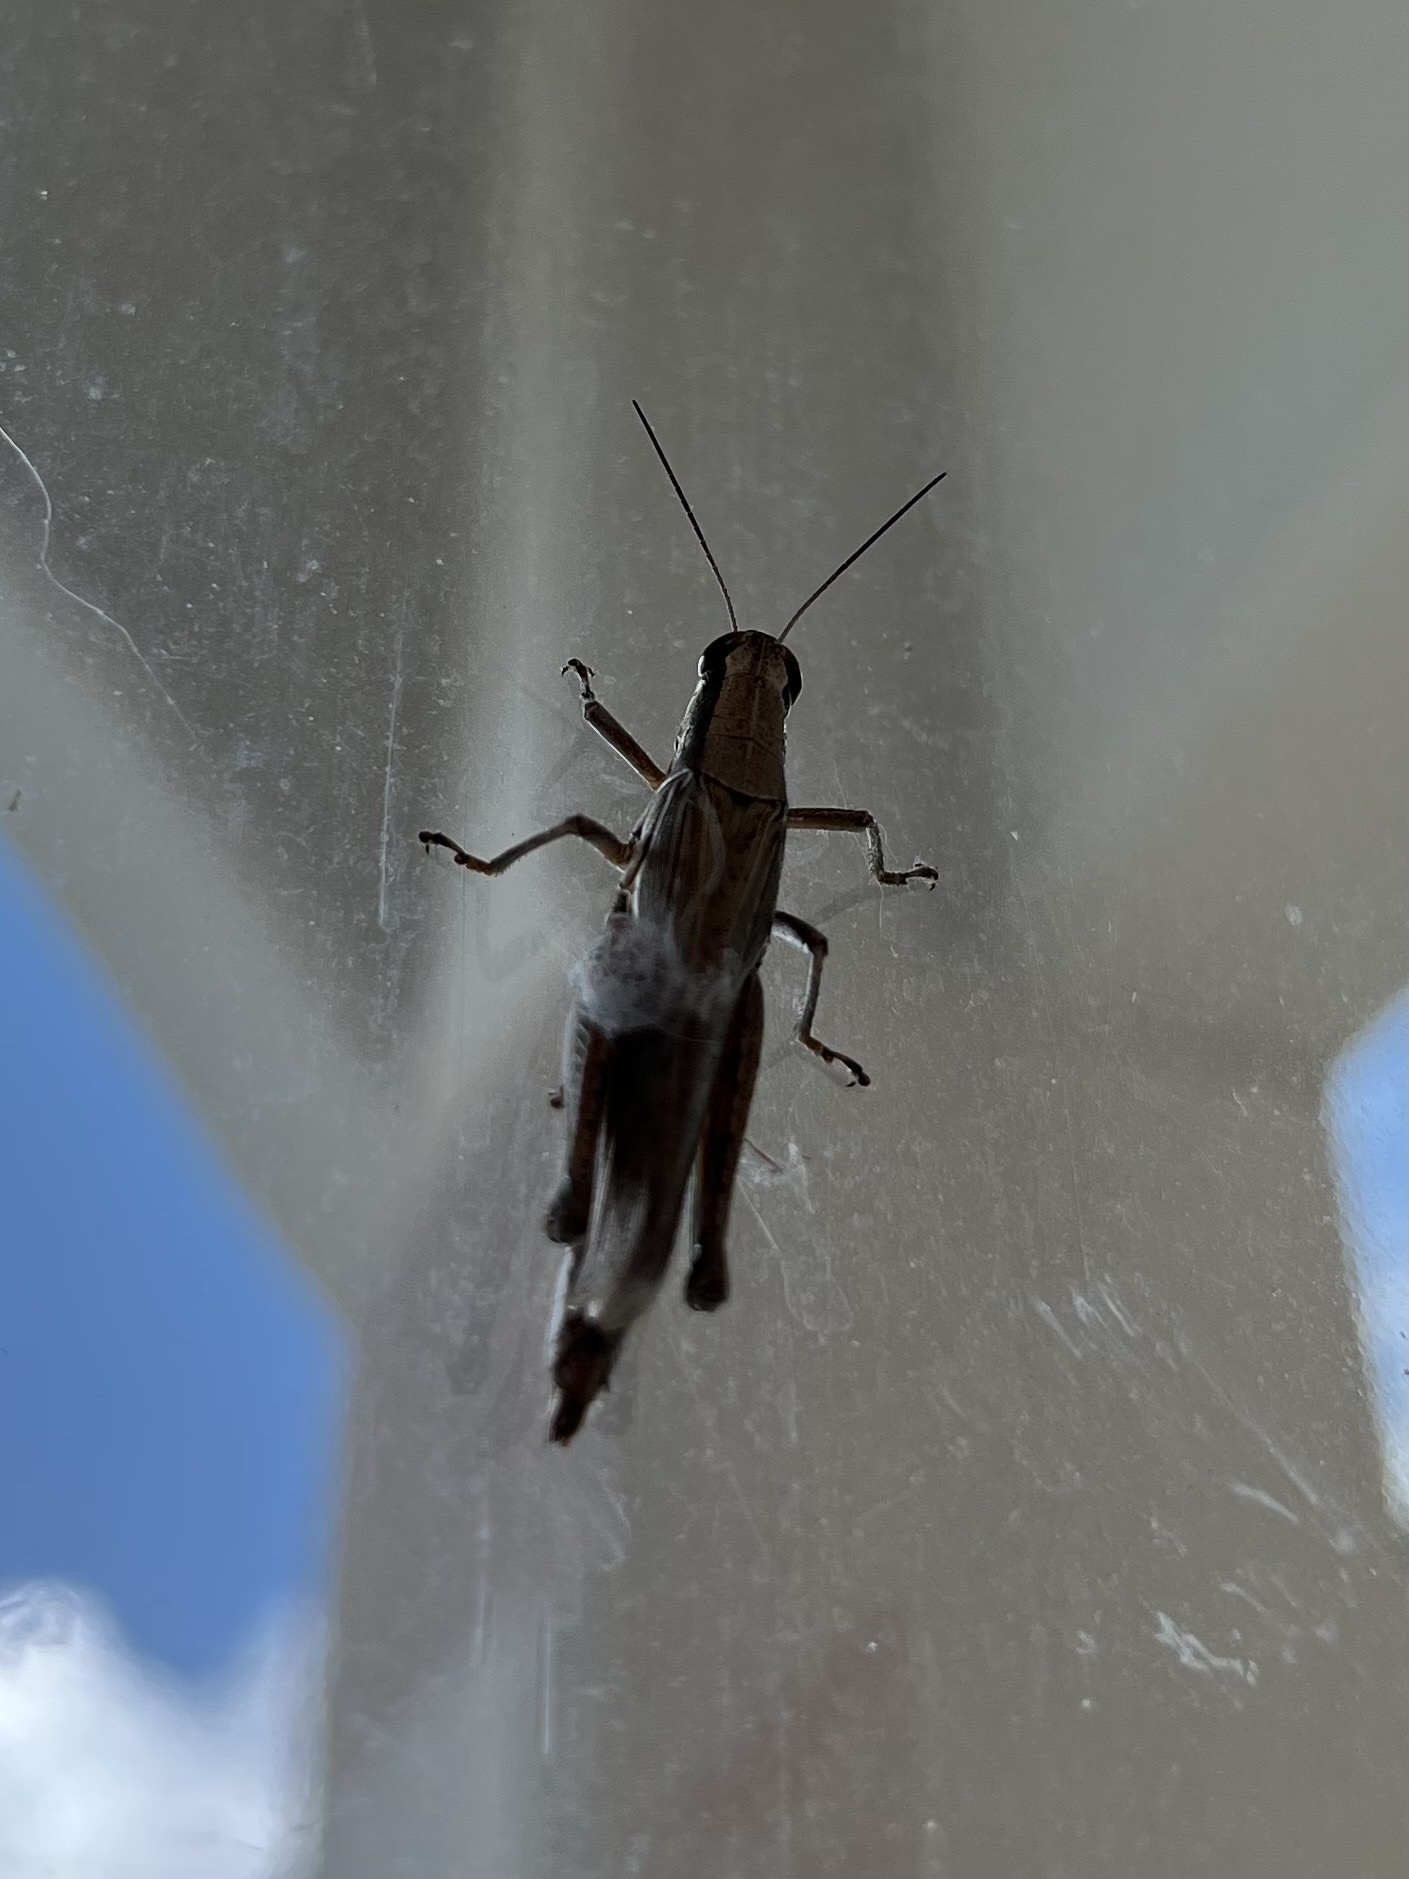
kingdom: Animalia
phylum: Arthropoda
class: Insecta
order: Orthoptera
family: Acrididae
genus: Paroxya
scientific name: Paroxya clavuligera
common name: Olive-green swamp grasshopper
